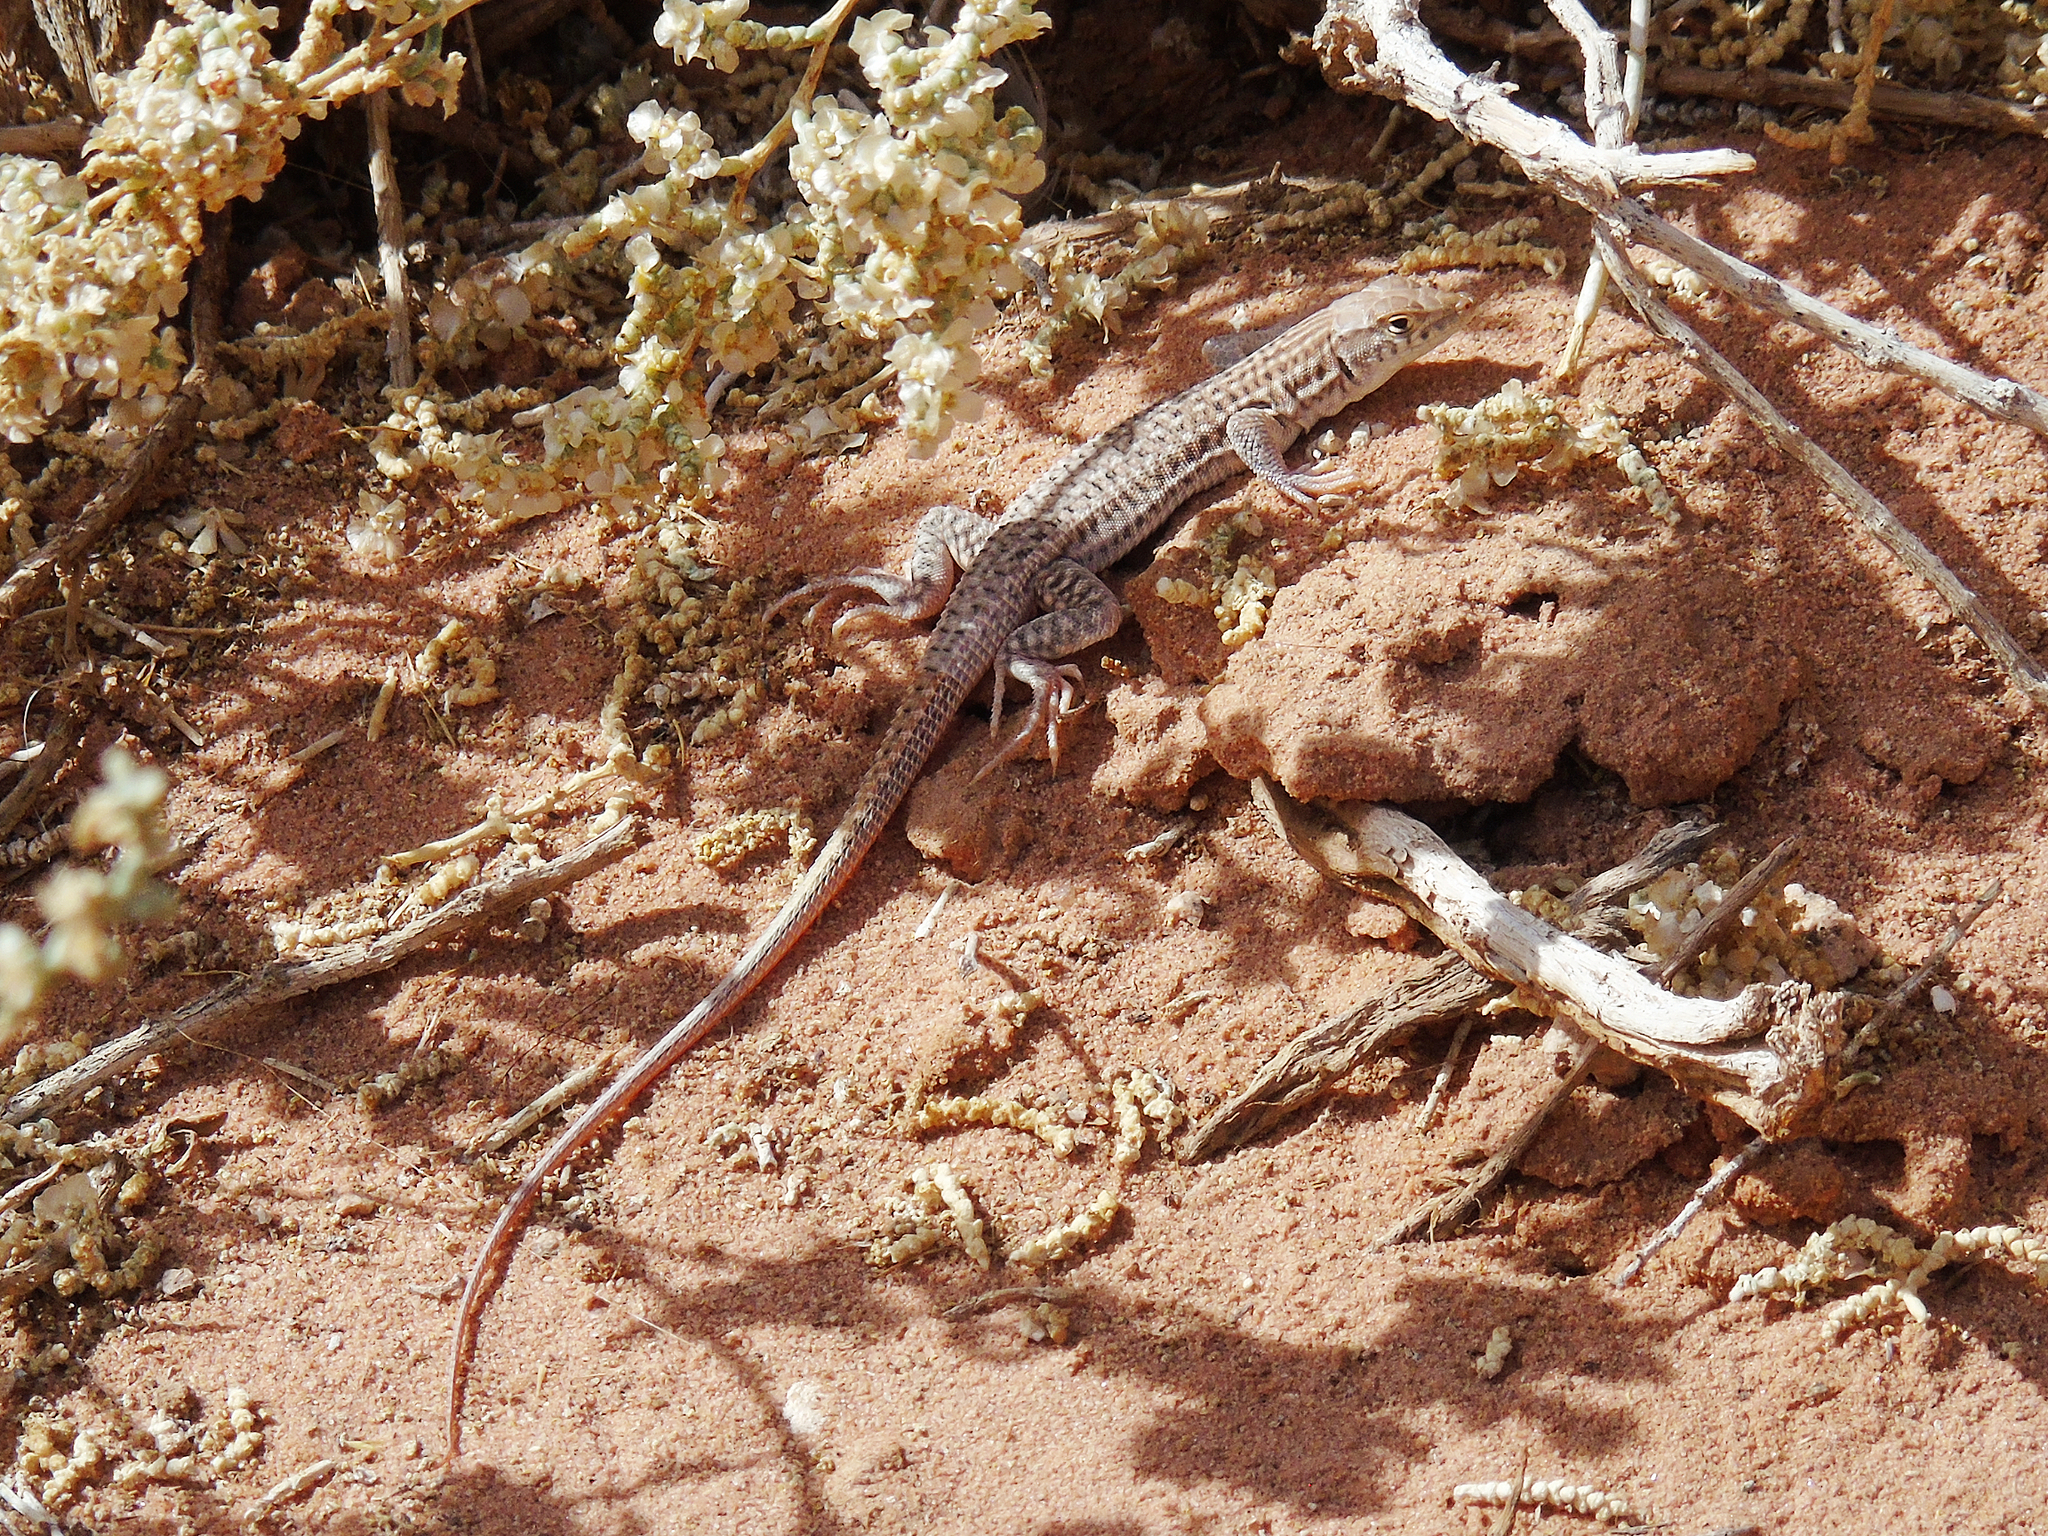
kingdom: Animalia
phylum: Chordata
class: Squamata
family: Lacertidae
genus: Acanthodactylus
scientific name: Acanthodactylus boskianus
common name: Bosc’s fringe-toed lizard
